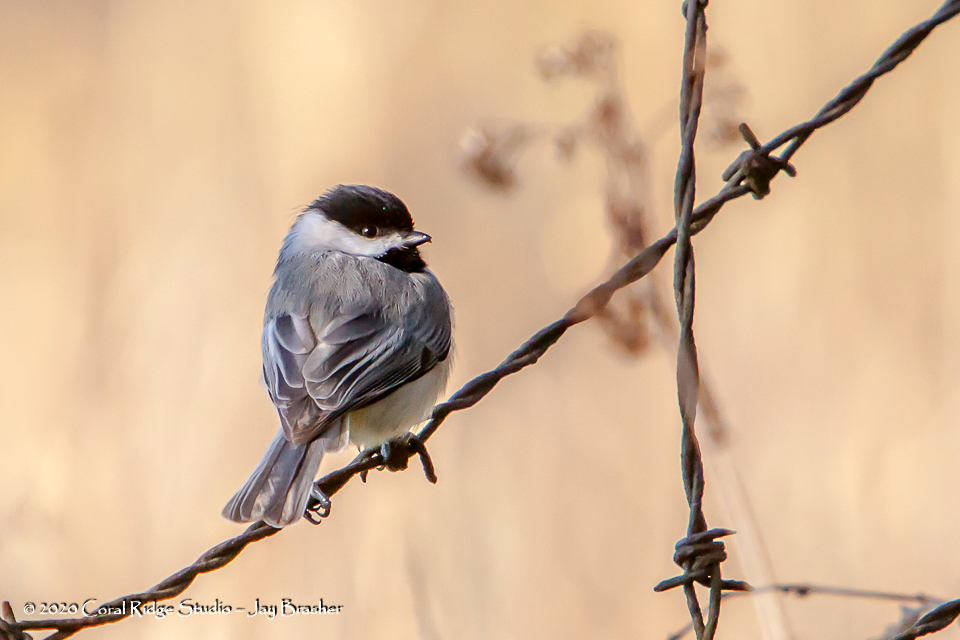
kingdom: Animalia
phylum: Chordata
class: Aves
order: Passeriformes
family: Paridae
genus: Poecile
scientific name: Poecile carolinensis
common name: Carolina chickadee
